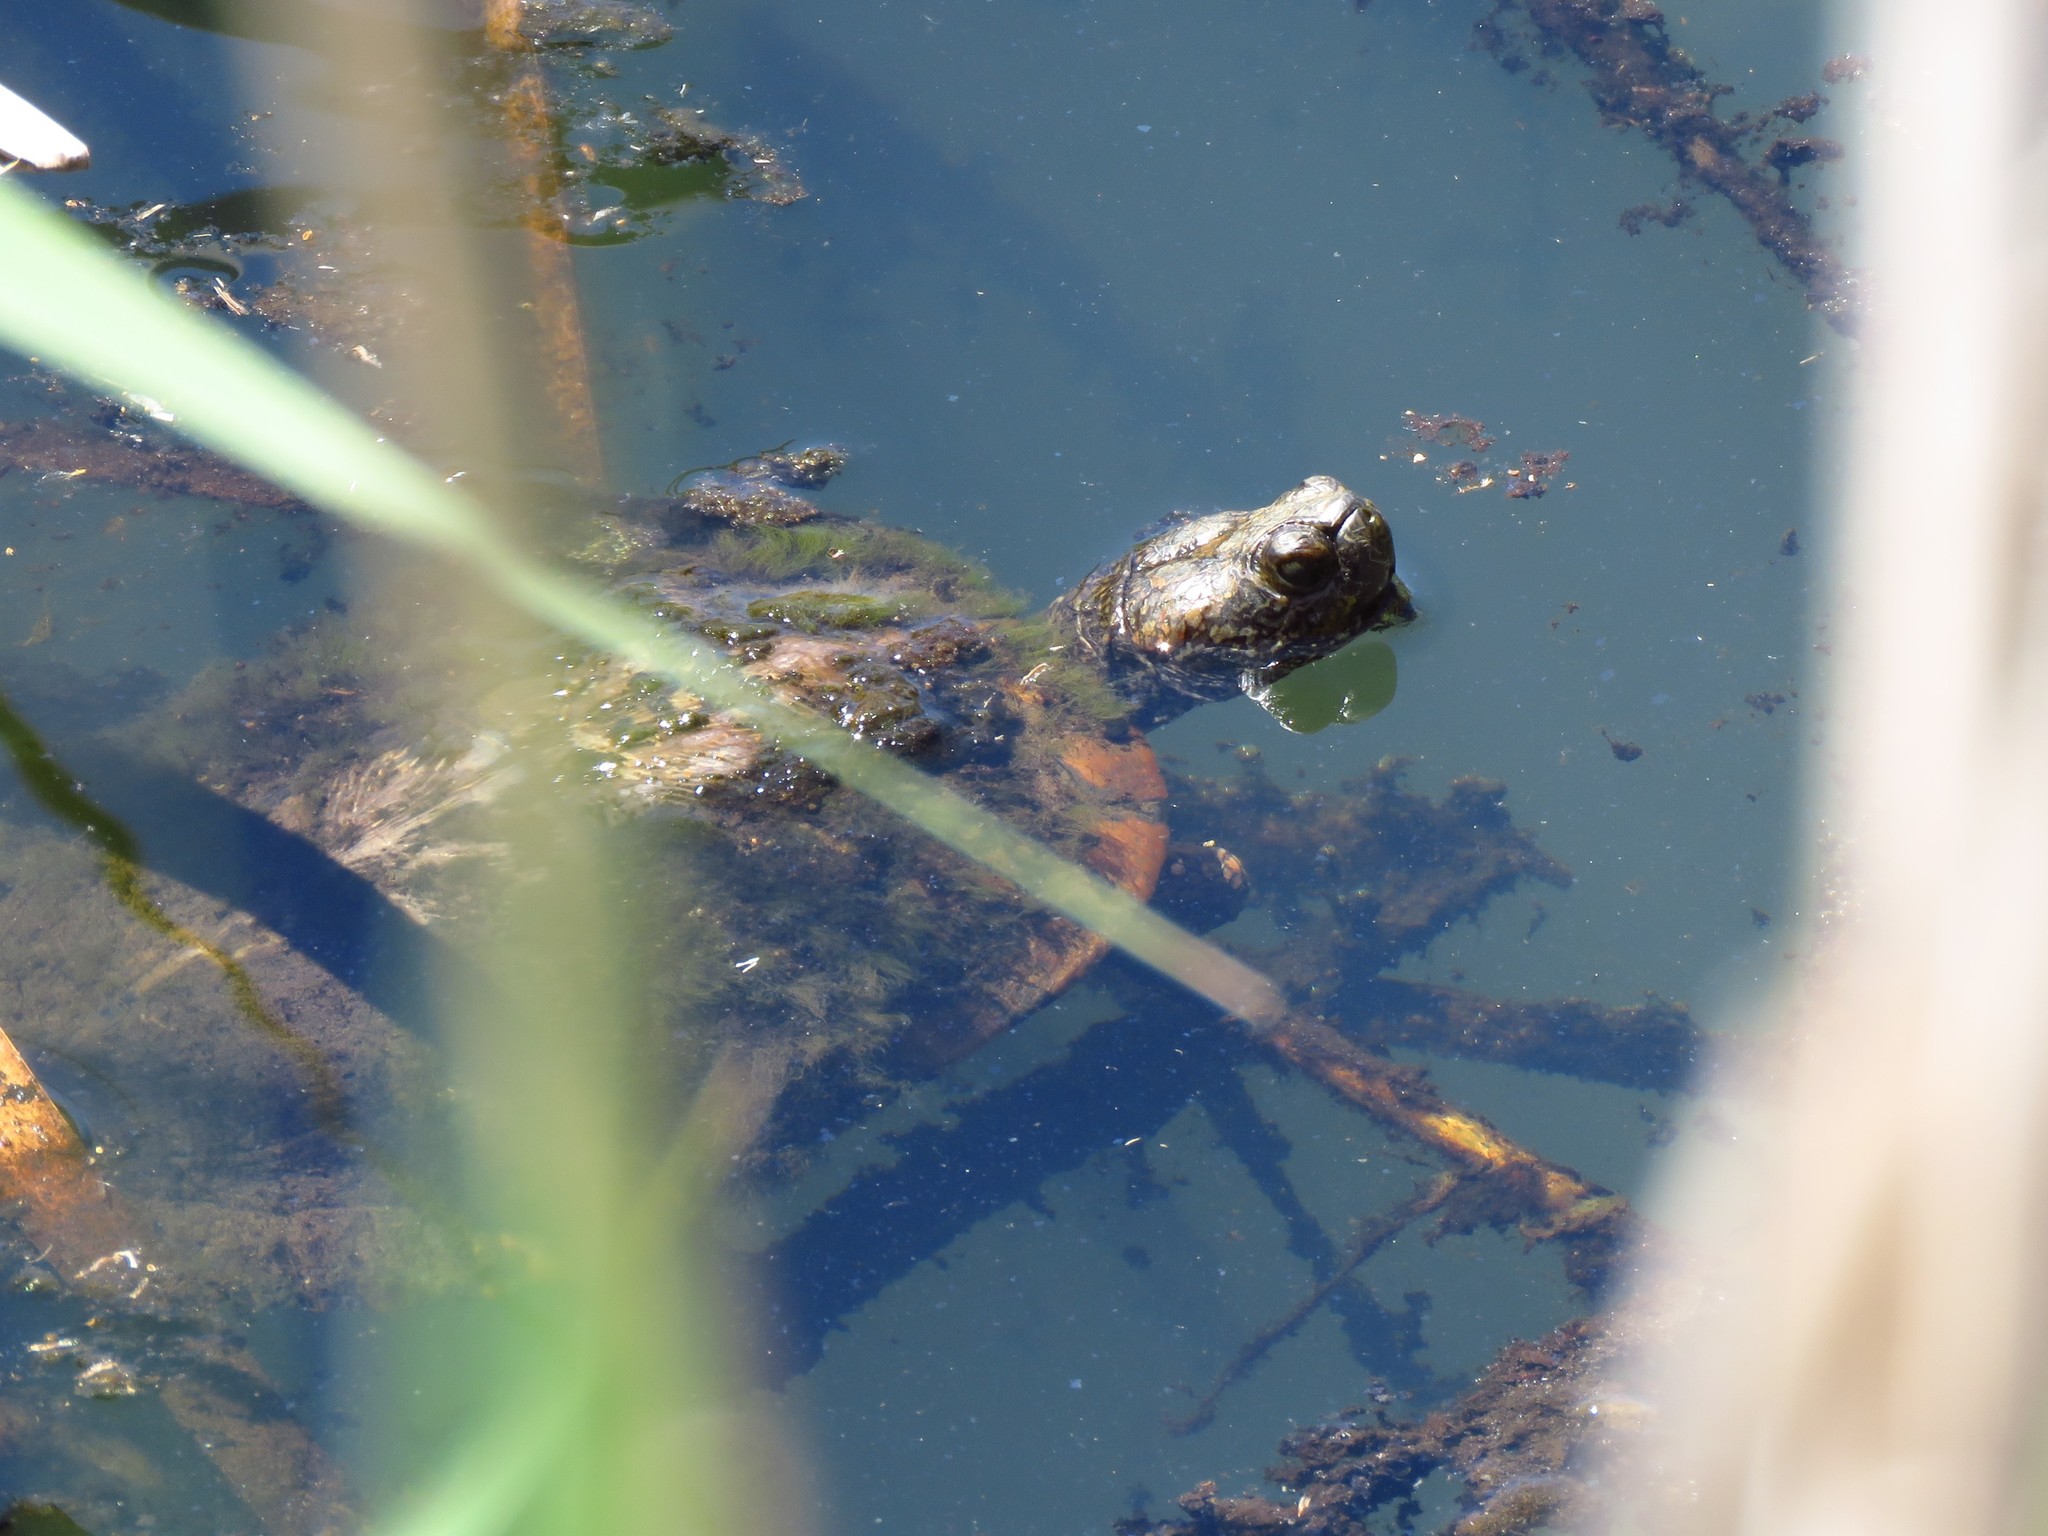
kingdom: Animalia
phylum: Chordata
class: Testudines
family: Emydidae
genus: Trachemys
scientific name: Trachemys scripta
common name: Slider
